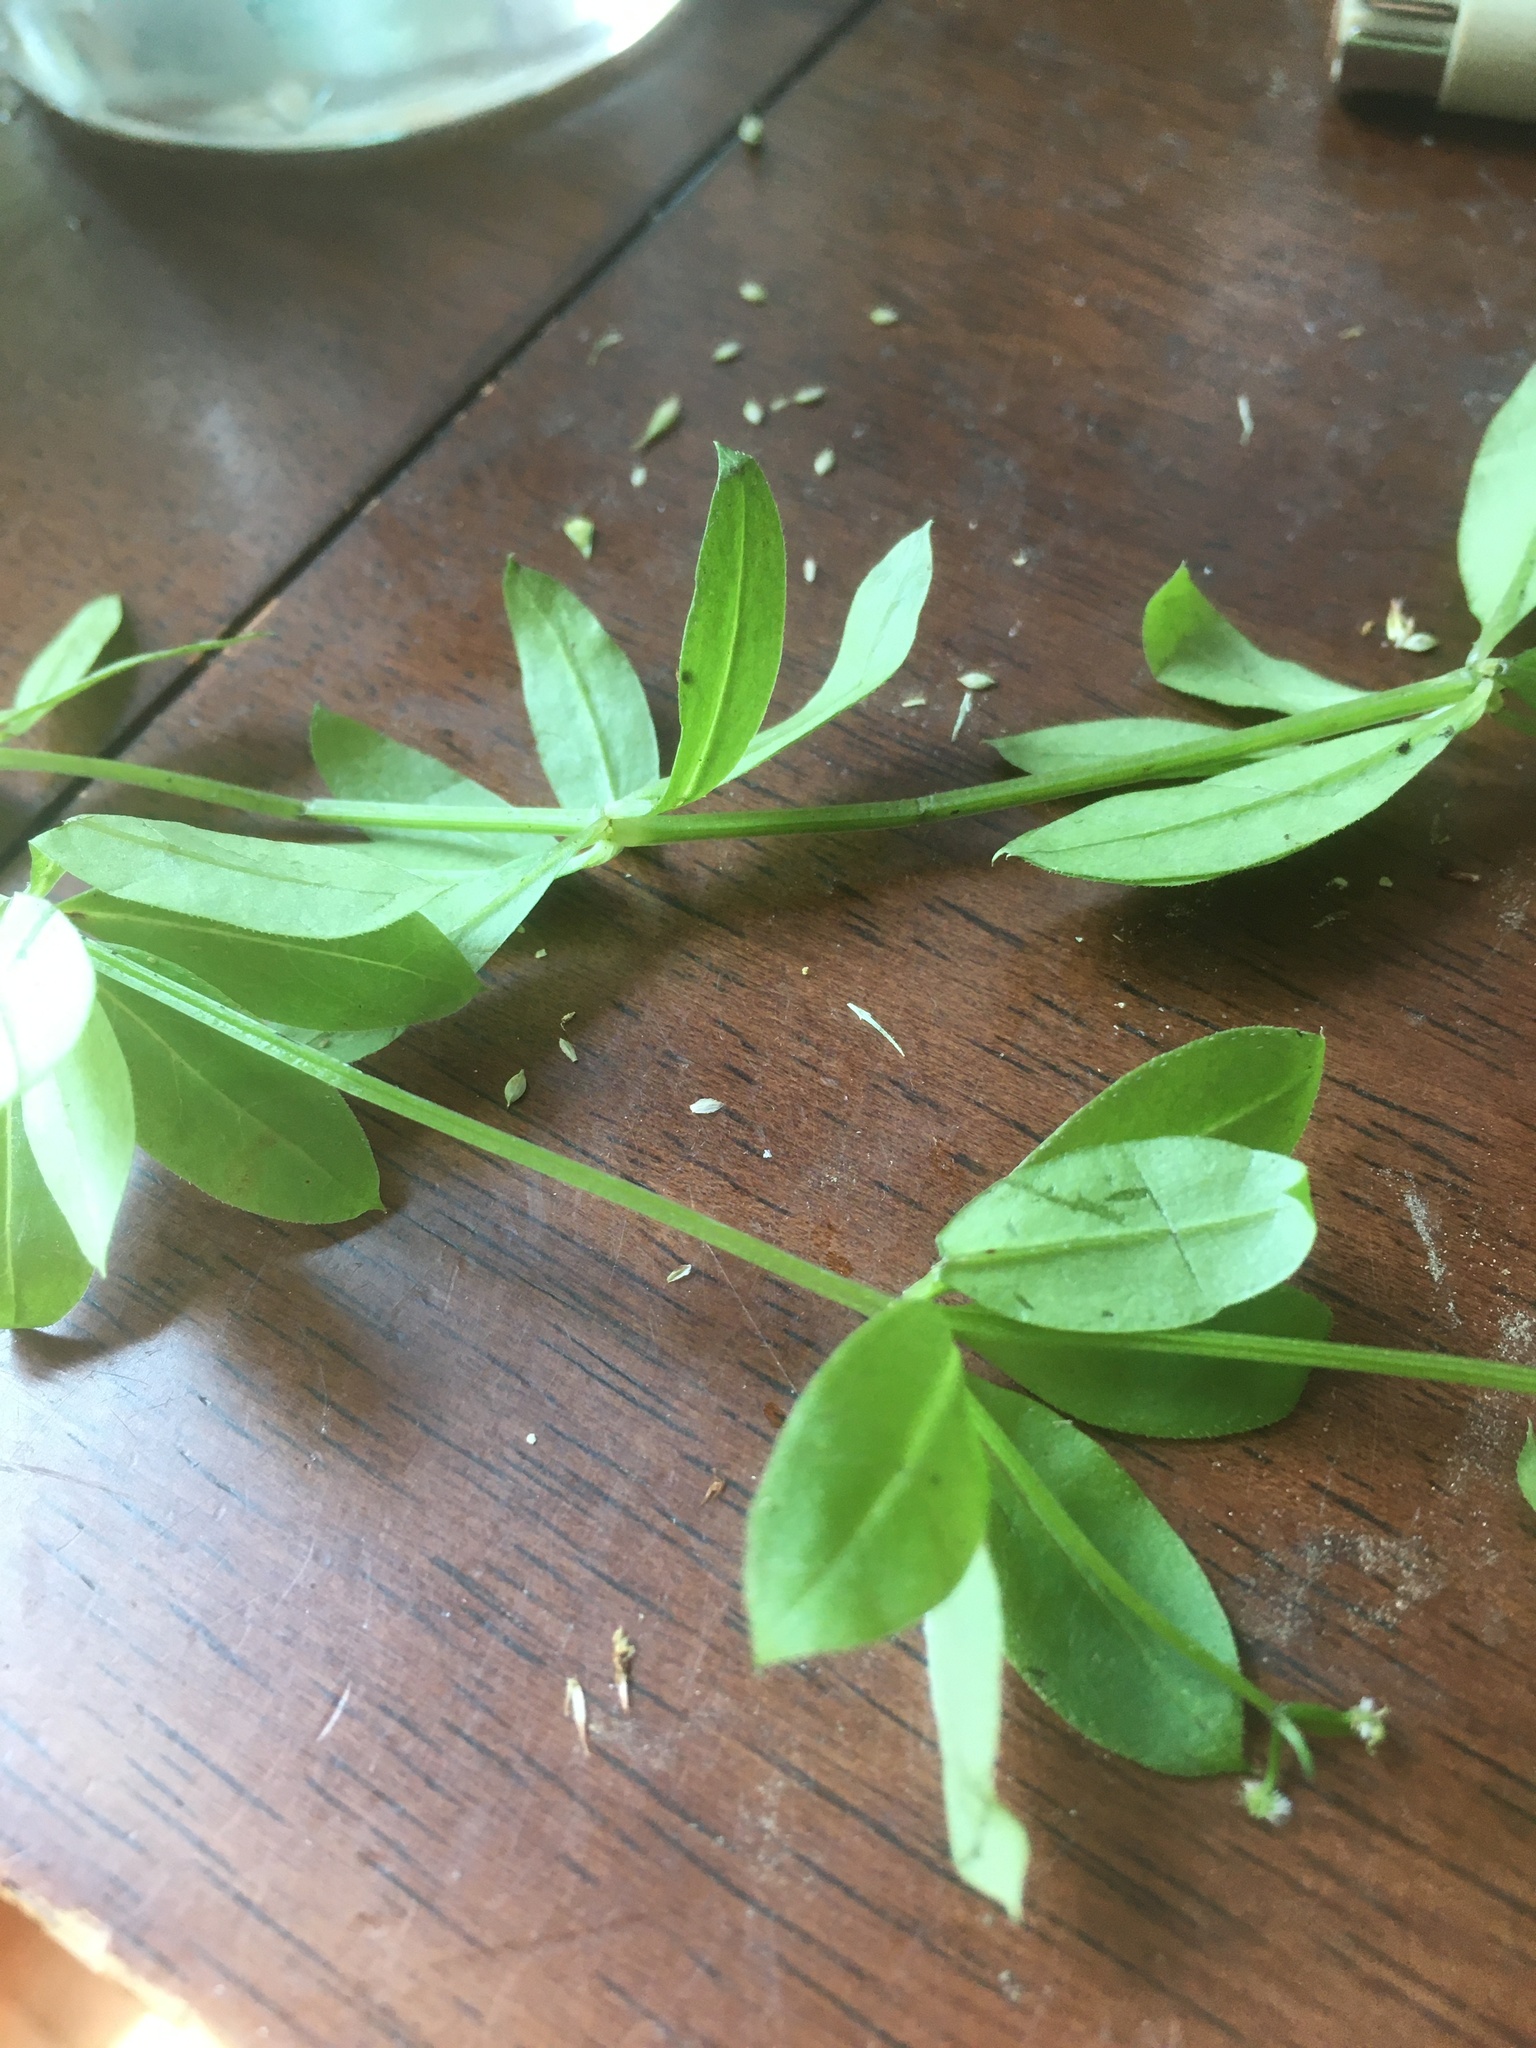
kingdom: Plantae
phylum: Tracheophyta
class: Magnoliopsida
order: Gentianales
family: Rubiaceae
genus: Galium
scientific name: Galium triflorum
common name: Fragrant bedstraw
